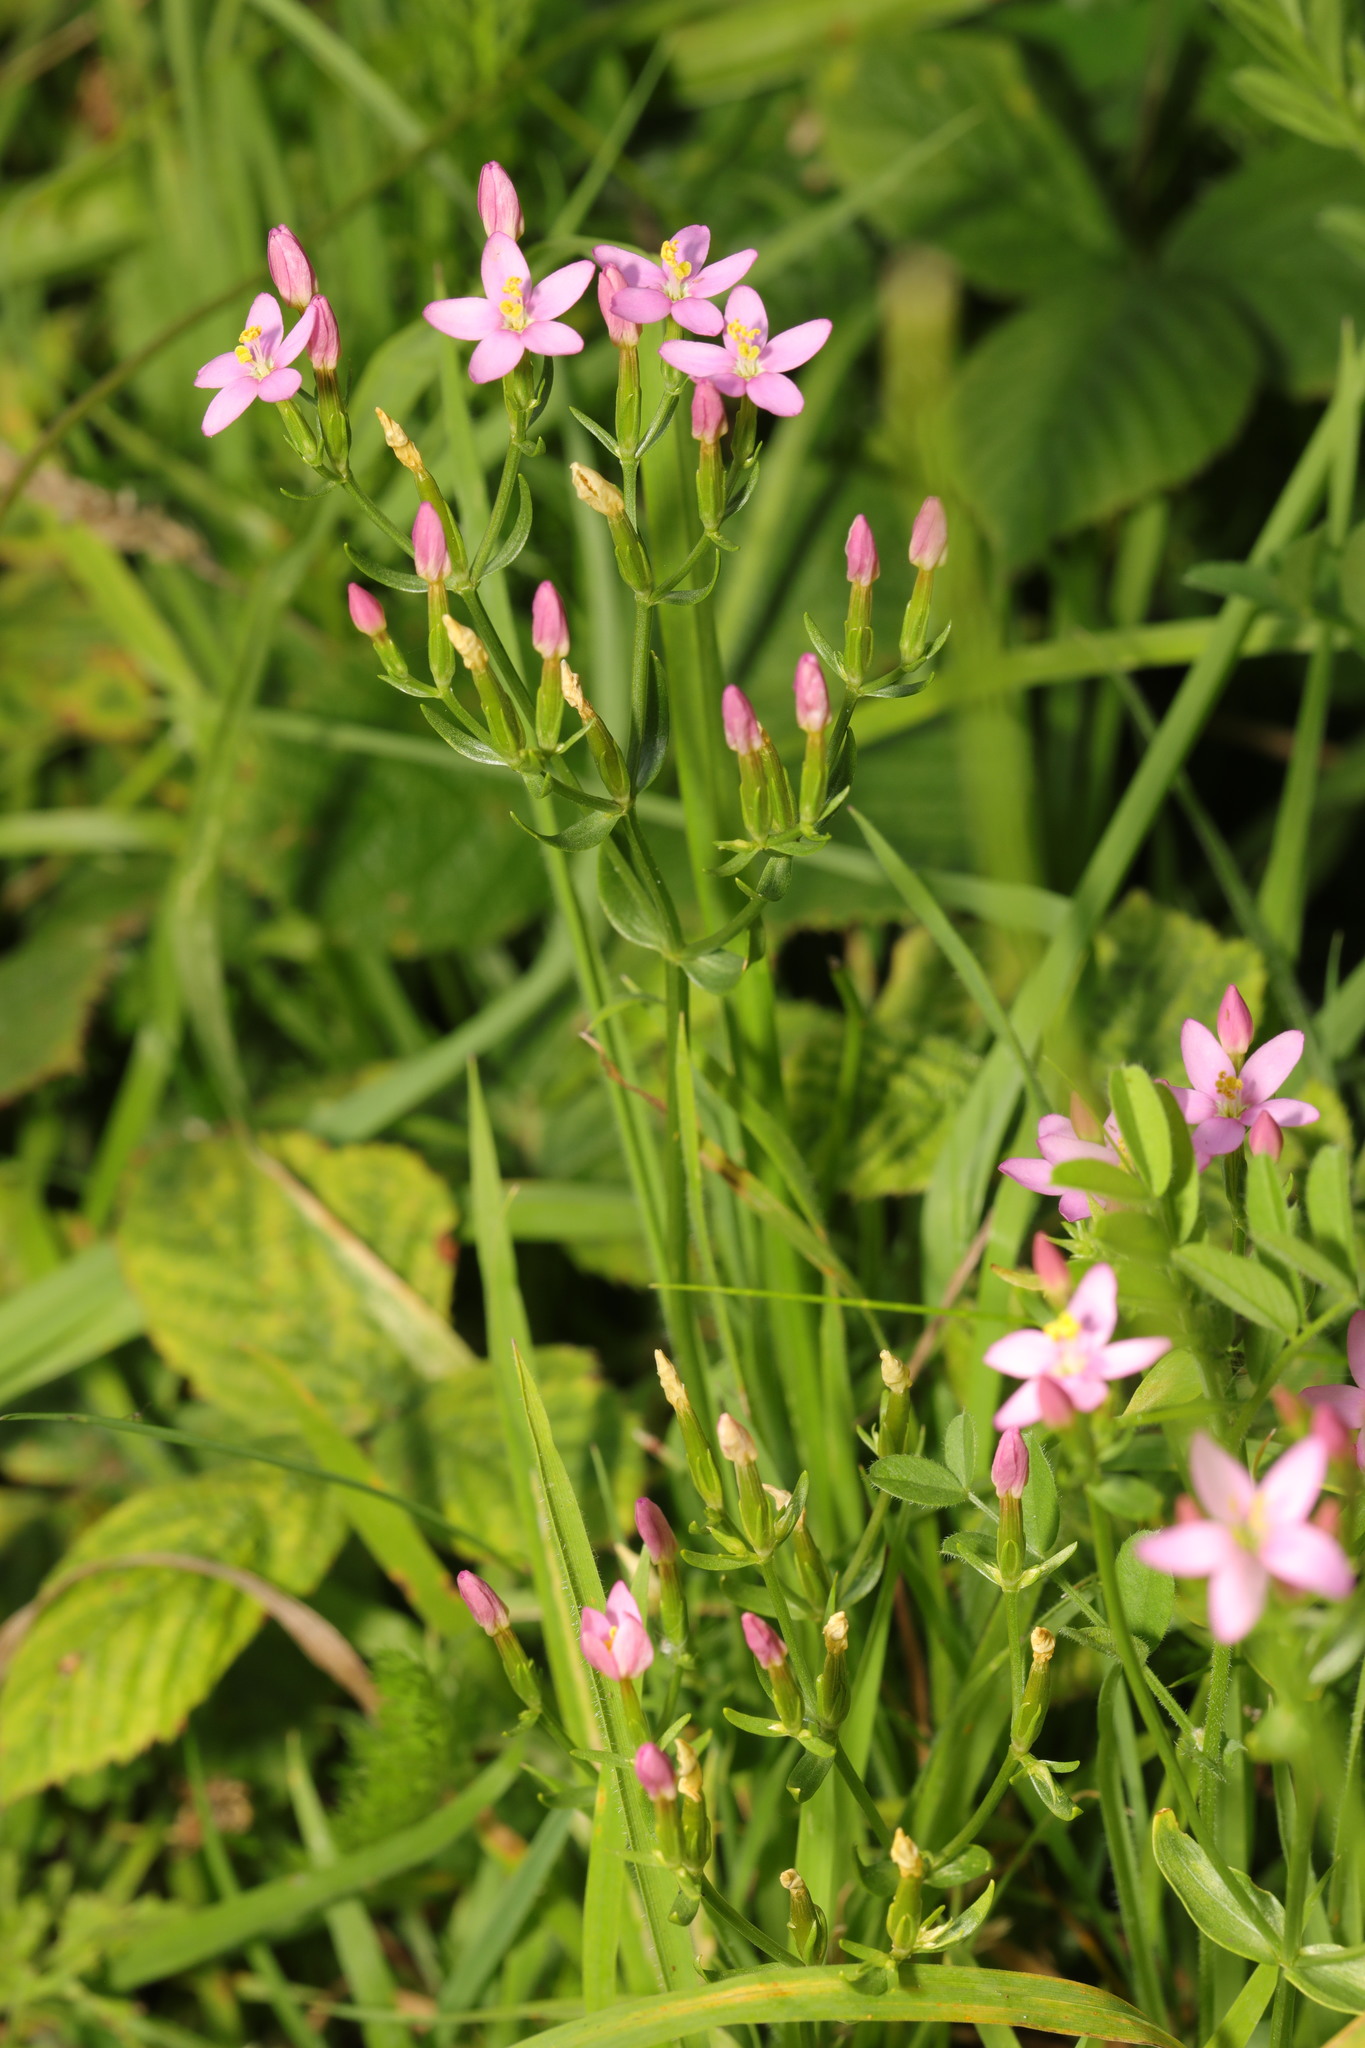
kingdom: Plantae
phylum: Tracheophyta
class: Magnoliopsida
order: Gentianales
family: Gentianaceae
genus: Centaurium
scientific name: Centaurium erythraea
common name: Common centaury
